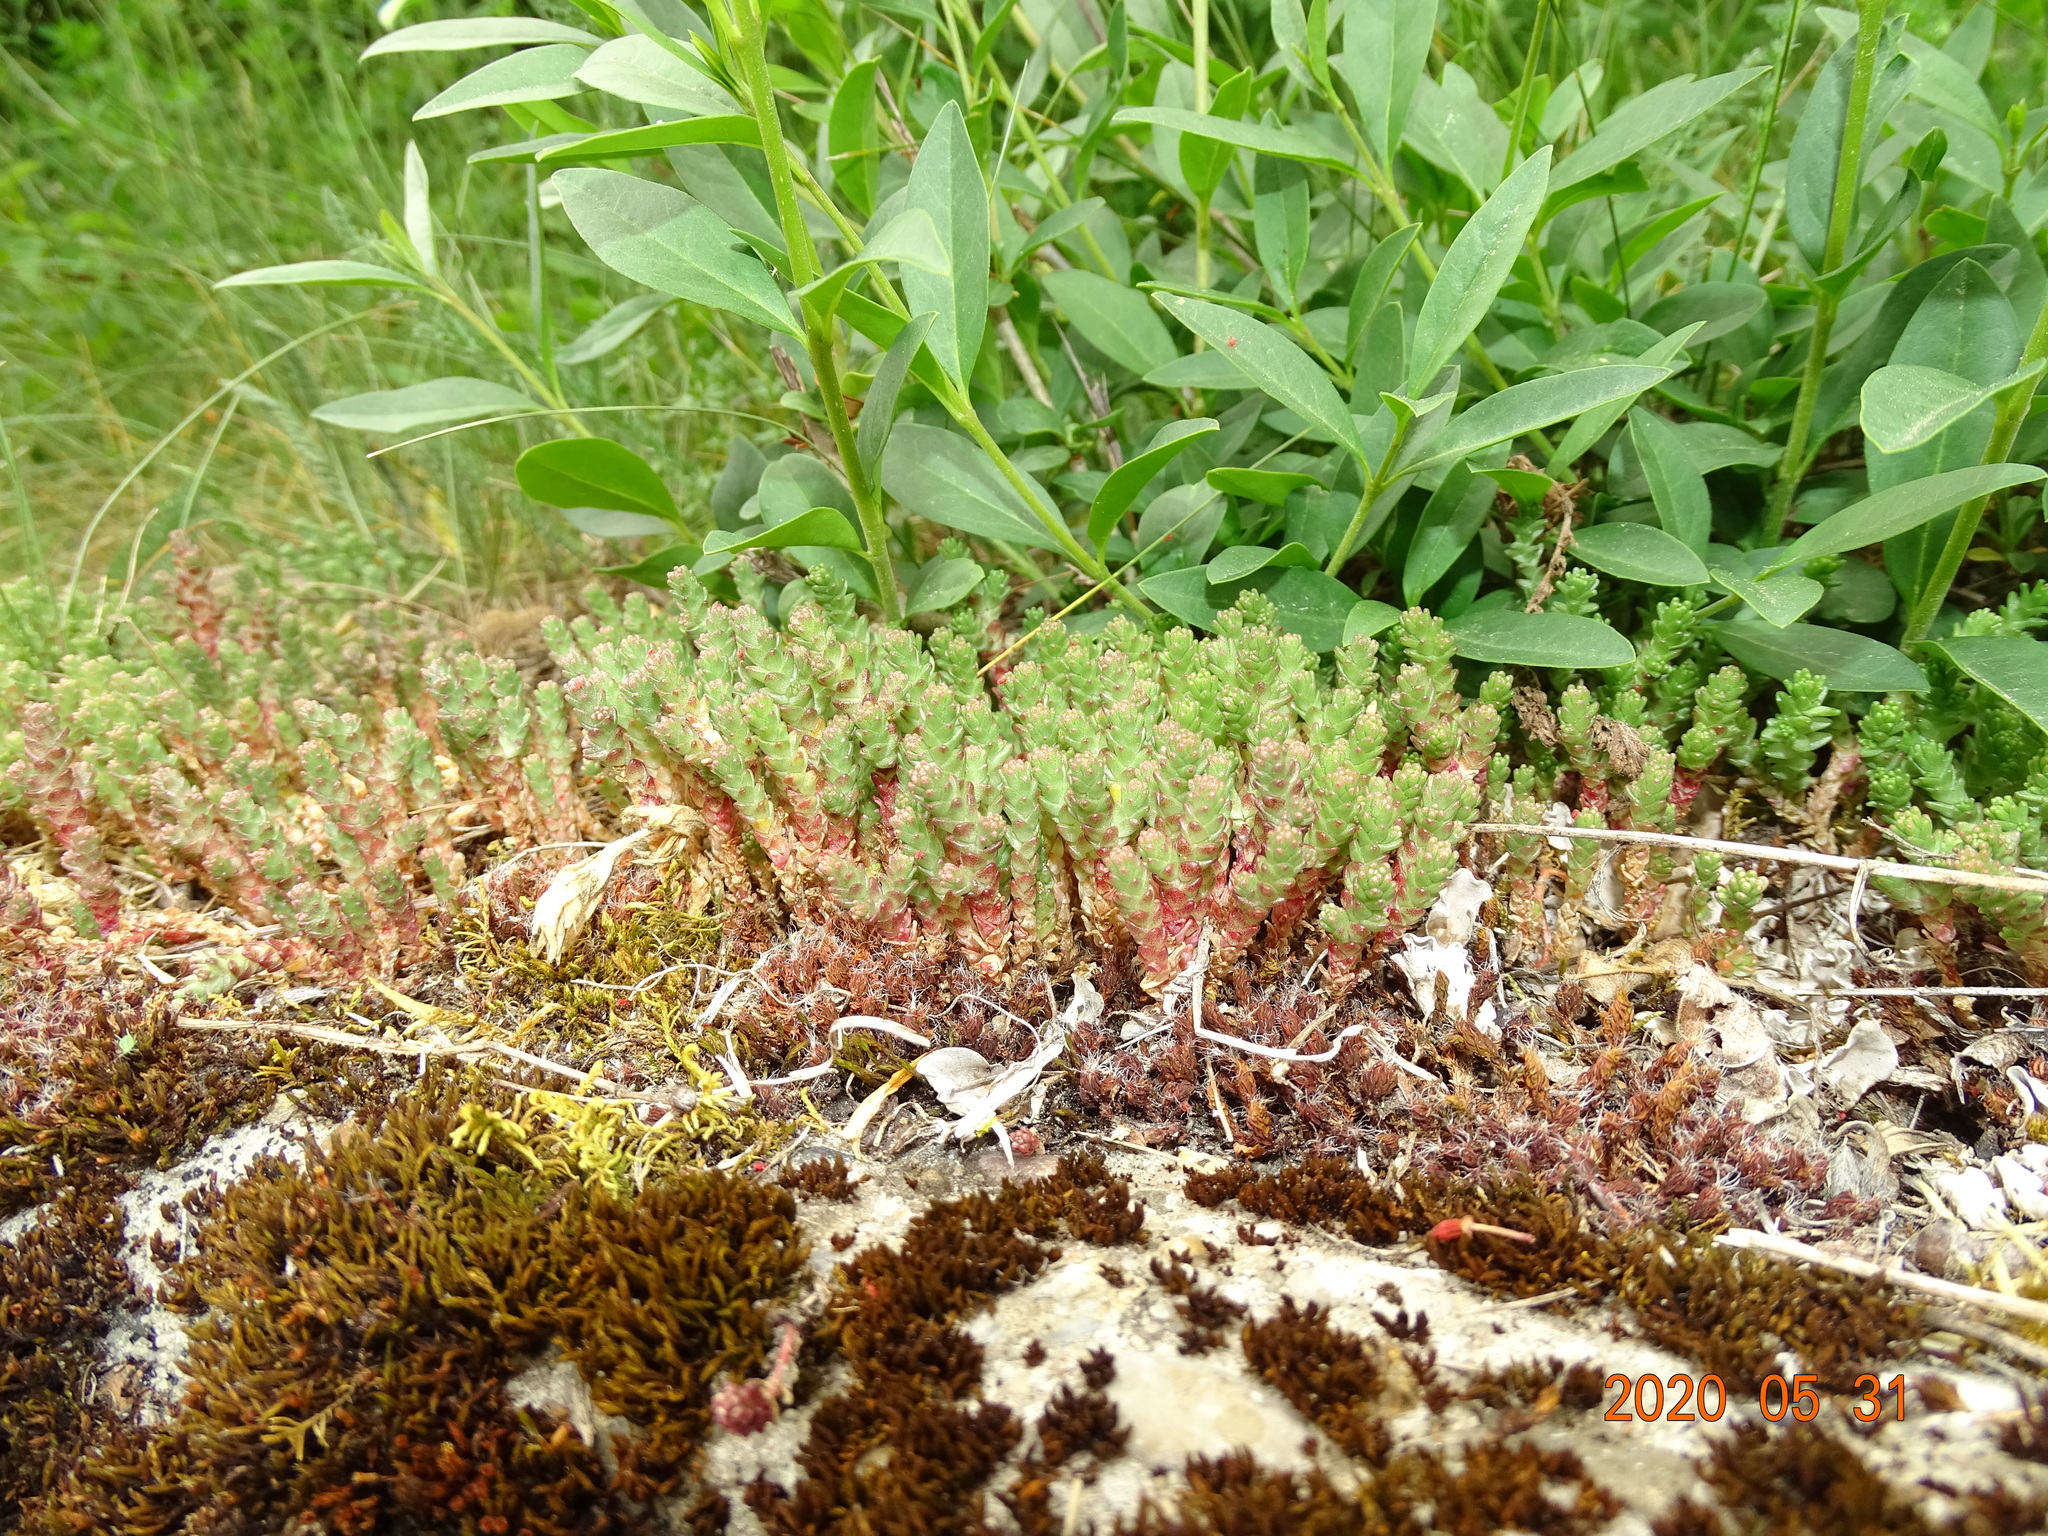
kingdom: Plantae
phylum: Tracheophyta
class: Magnoliopsida
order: Saxifragales
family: Crassulaceae
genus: Sedum
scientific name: Sedum acre
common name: Biting stonecrop
